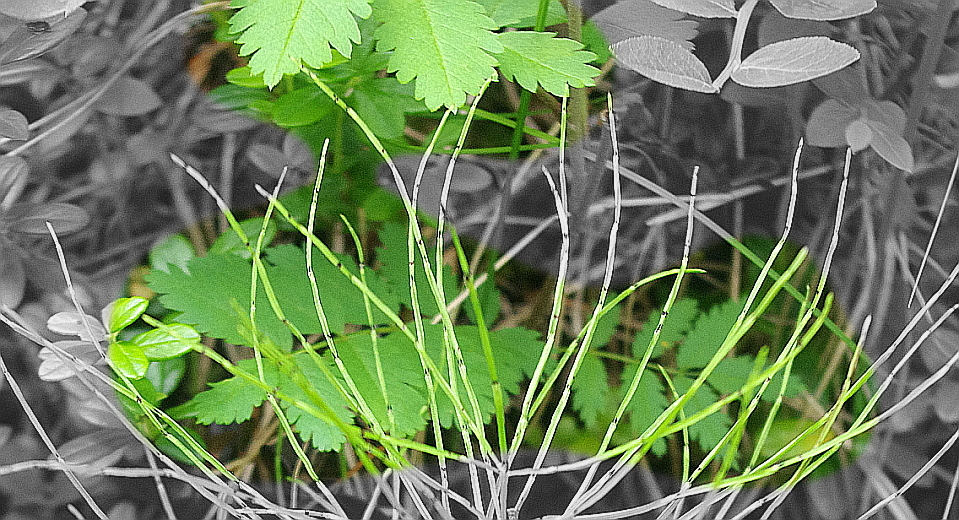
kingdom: Plantae
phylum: Tracheophyta
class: Magnoliopsida
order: Rosales
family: Rosaceae
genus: Sorbus
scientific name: Sorbus aucuparia
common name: Rowan
